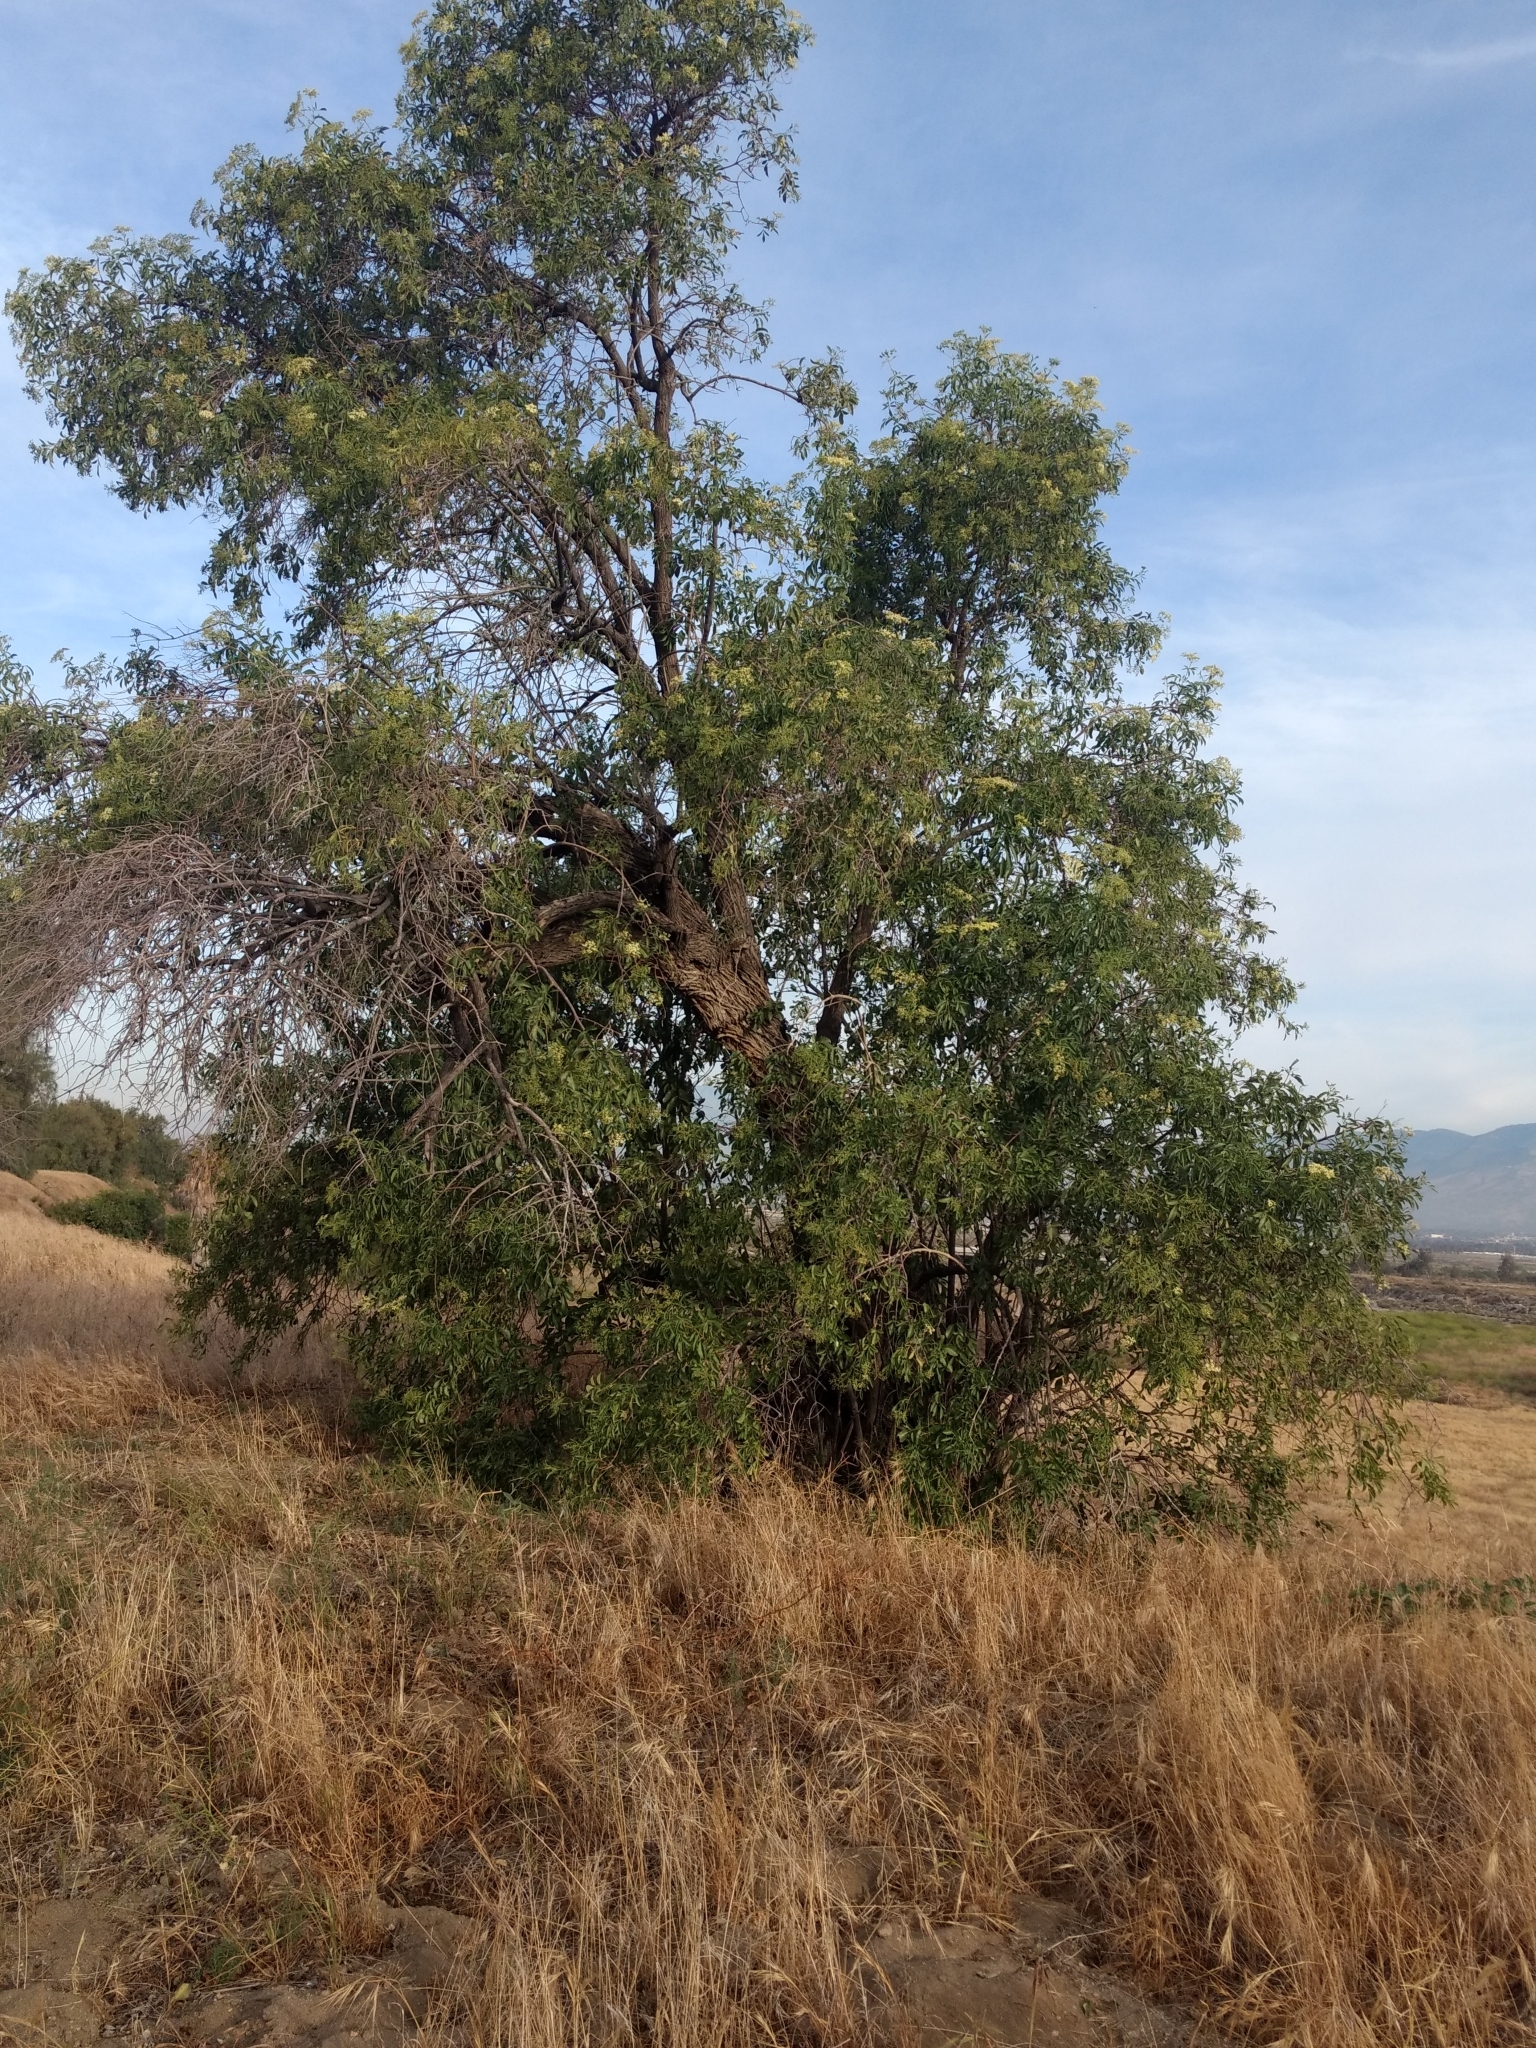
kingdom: Plantae
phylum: Tracheophyta
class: Magnoliopsida
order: Dipsacales
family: Viburnaceae
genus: Sambucus
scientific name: Sambucus cerulea
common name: Blue elder
